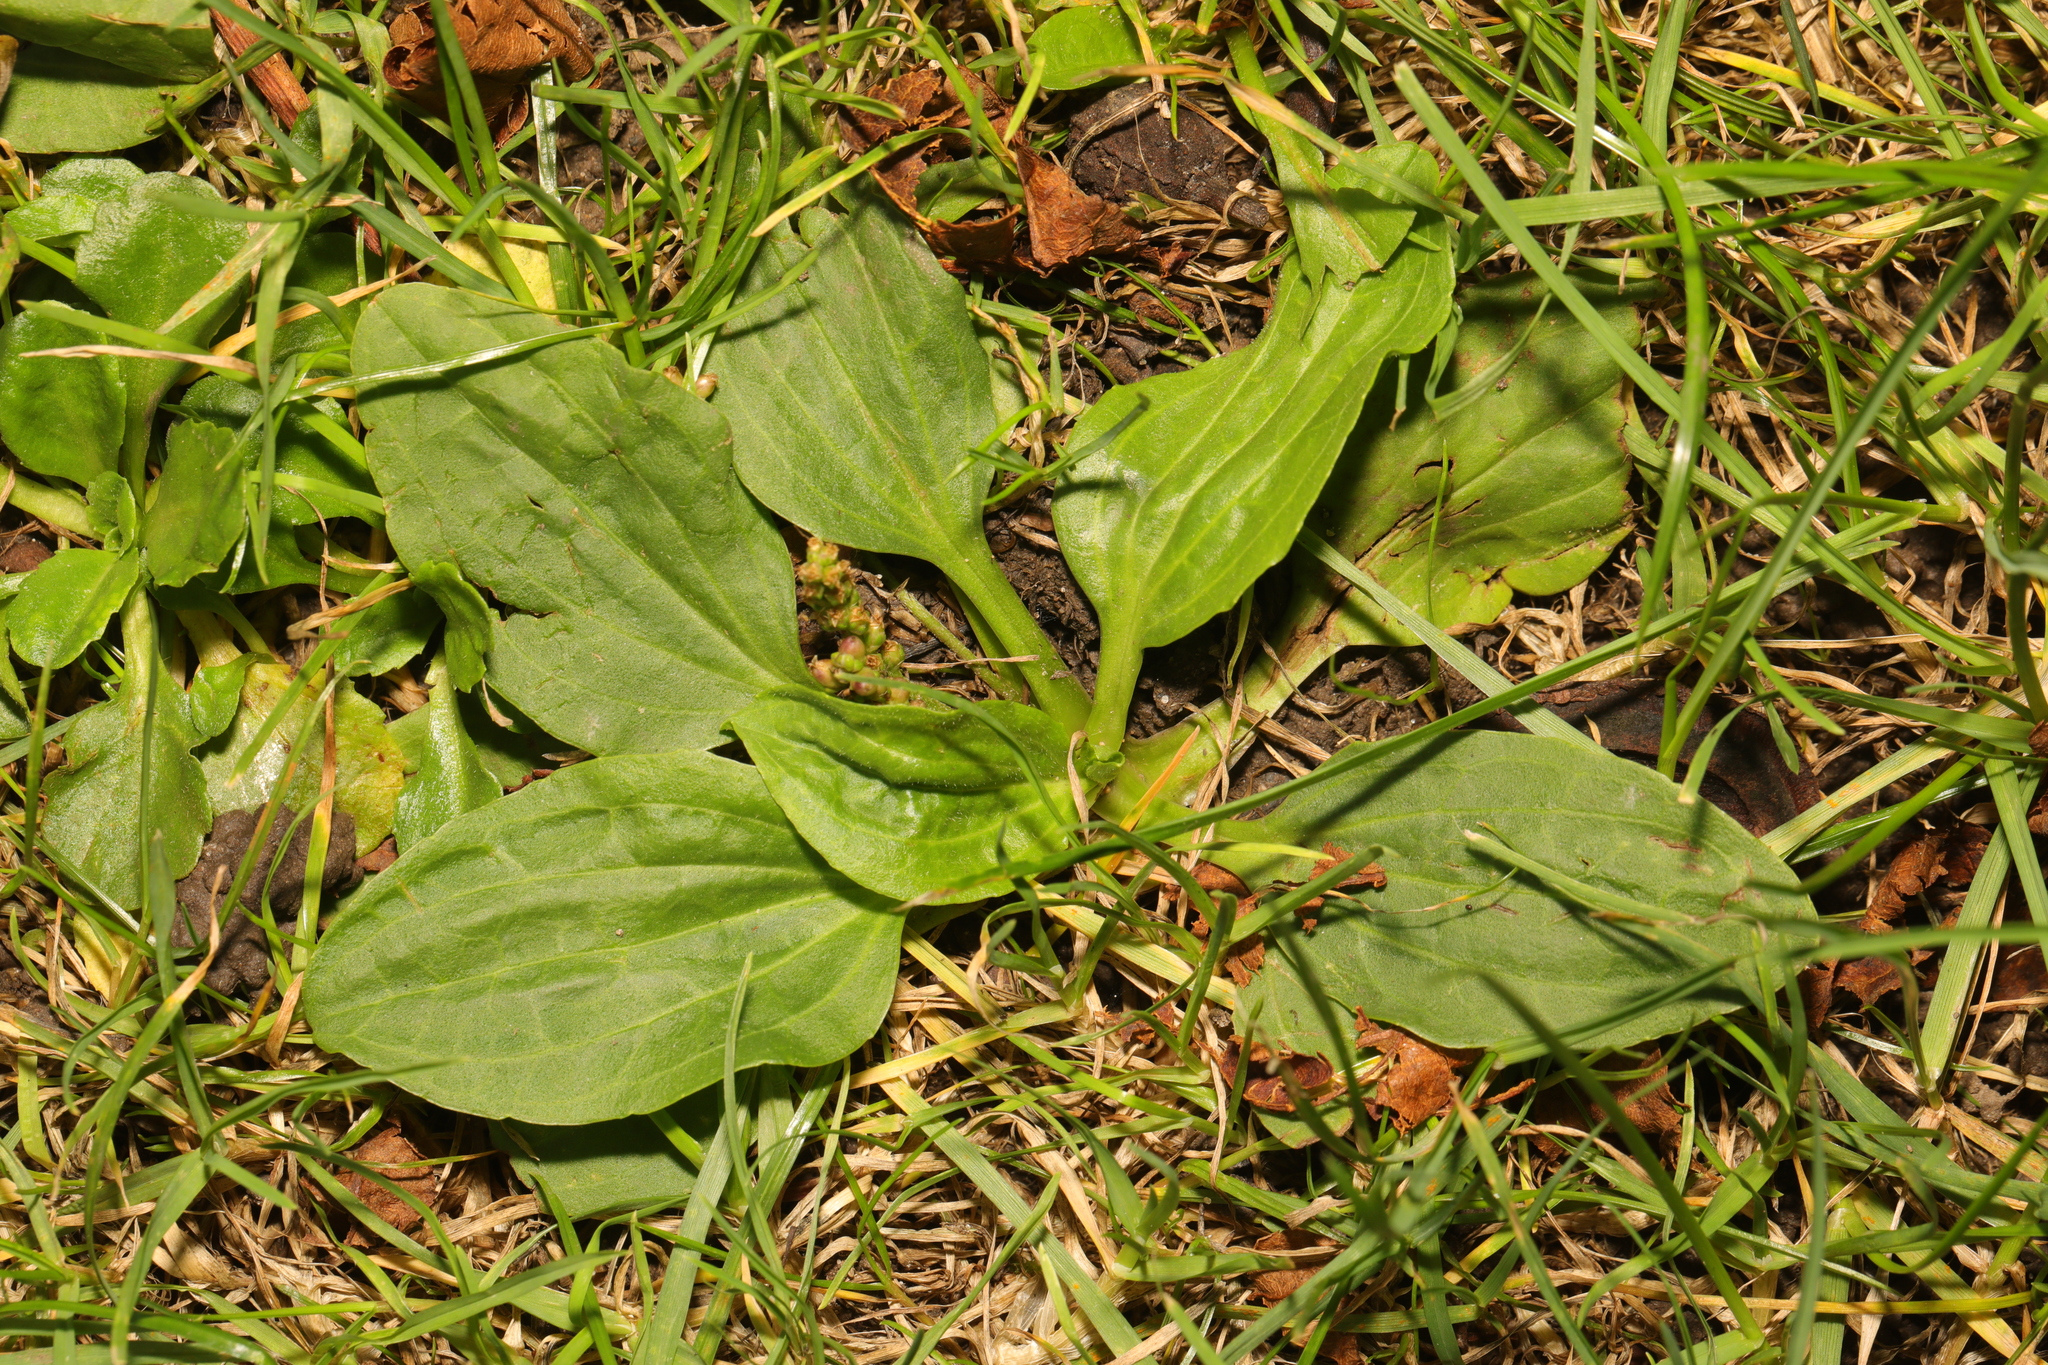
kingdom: Plantae
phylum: Tracheophyta
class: Magnoliopsida
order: Lamiales
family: Plantaginaceae
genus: Plantago
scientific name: Plantago major
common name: Common plantain
